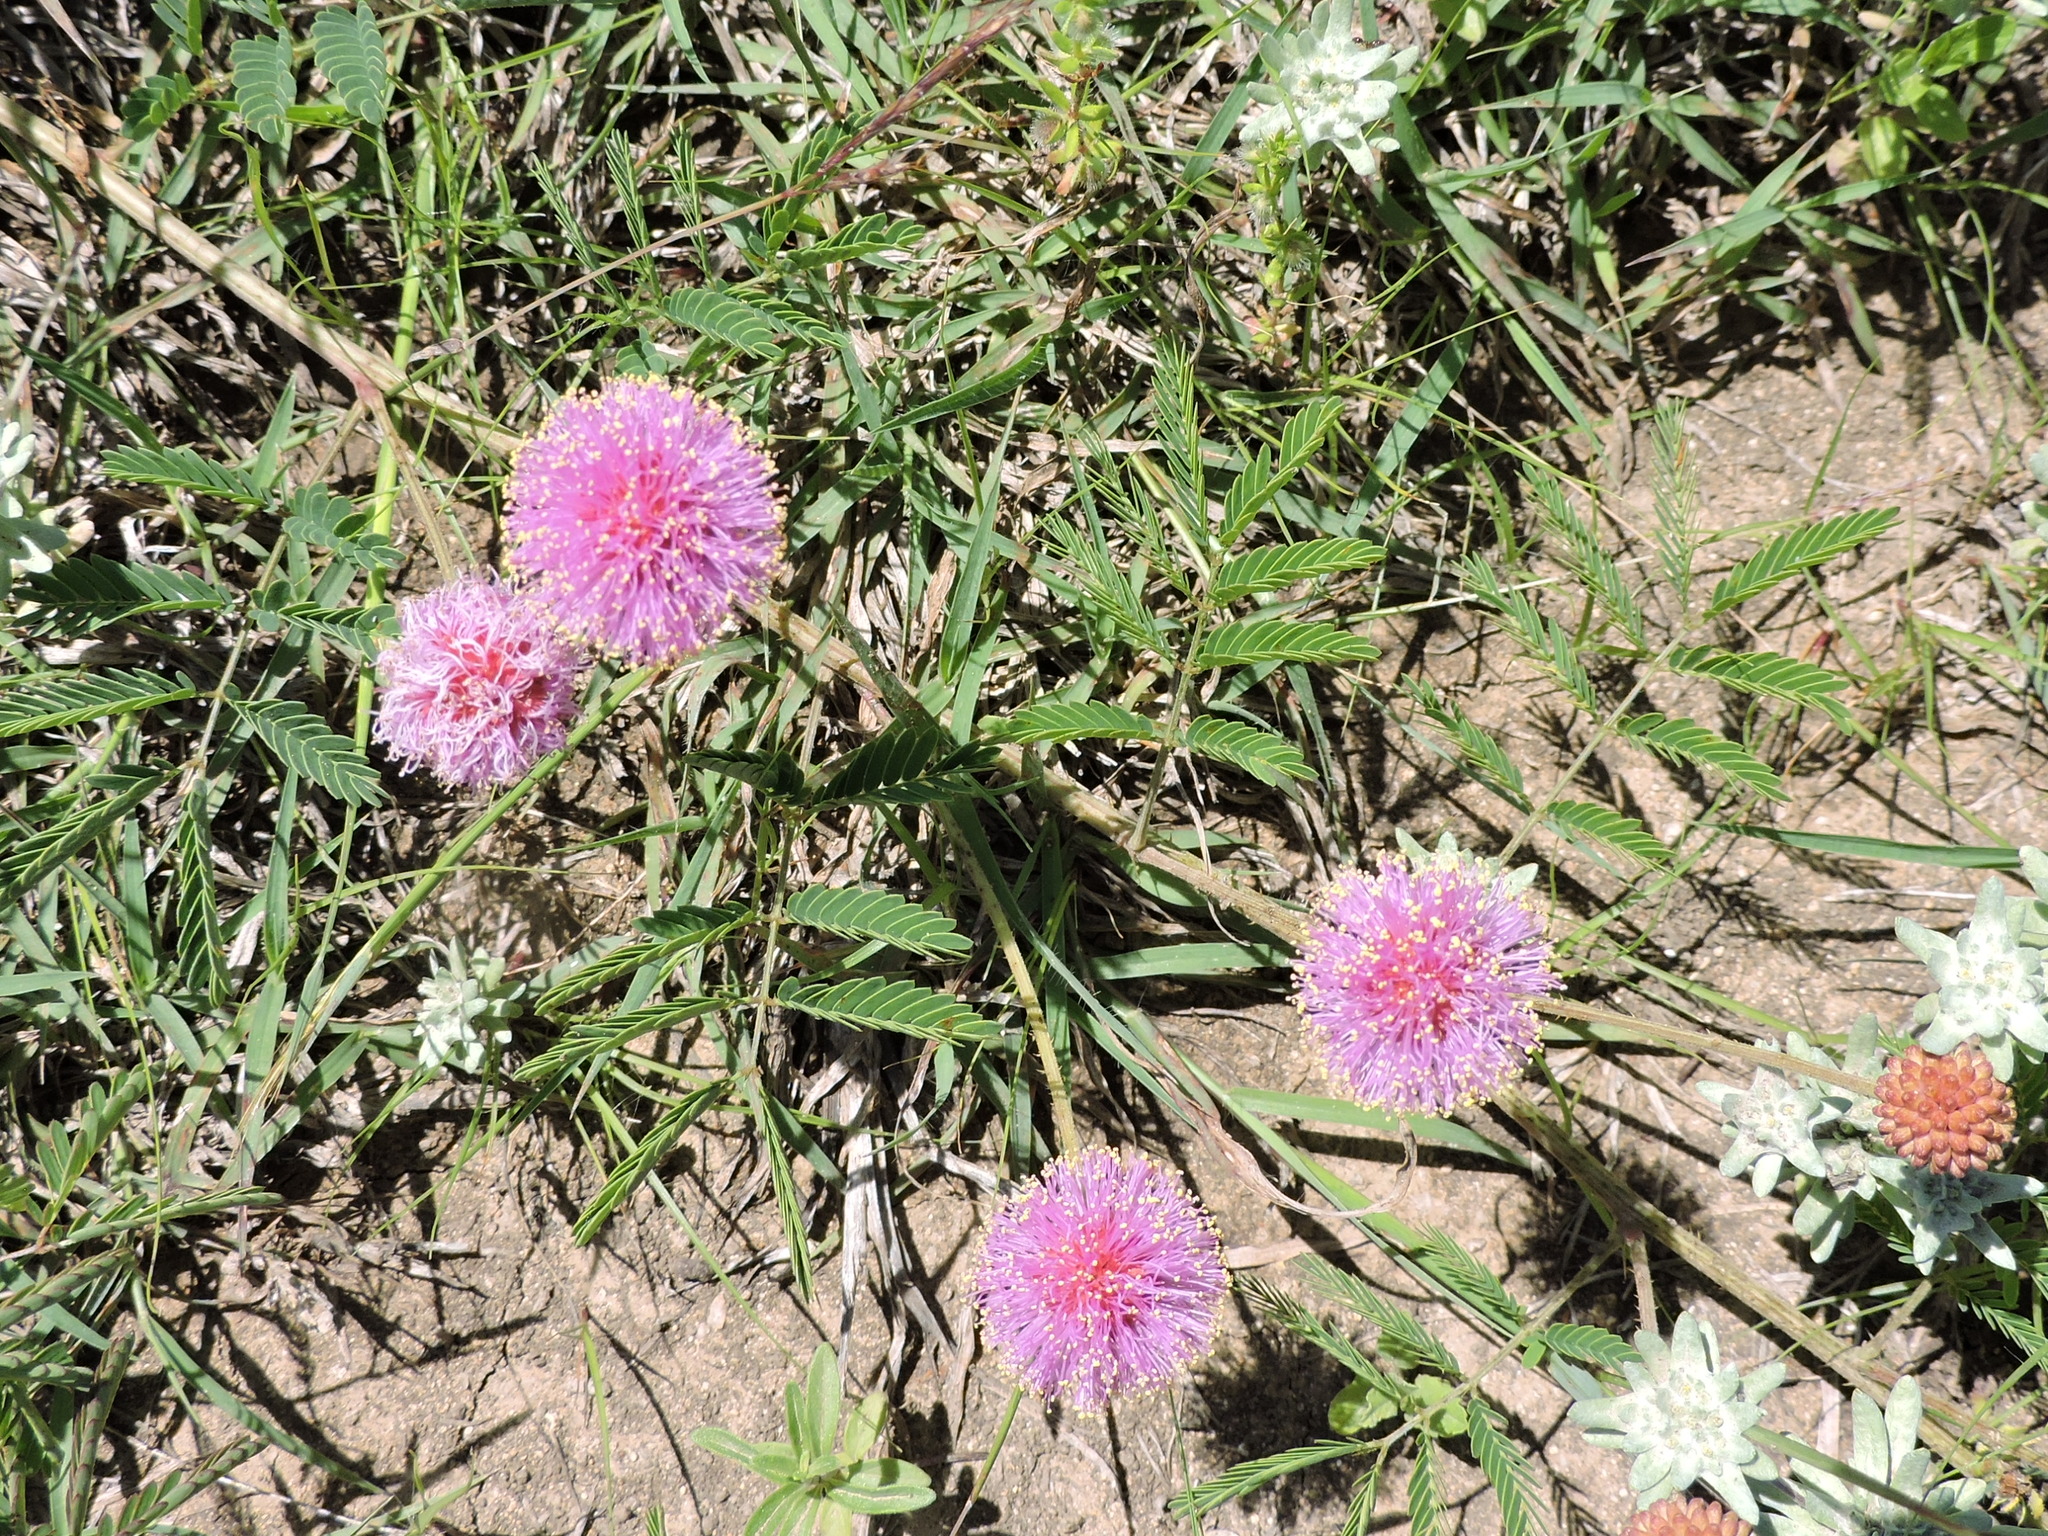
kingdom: Plantae
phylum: Tracheophyta
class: Magnoliopsida
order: Fabales
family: Fabaceae
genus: Mimosa
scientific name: Mimosa quadrivalvis
